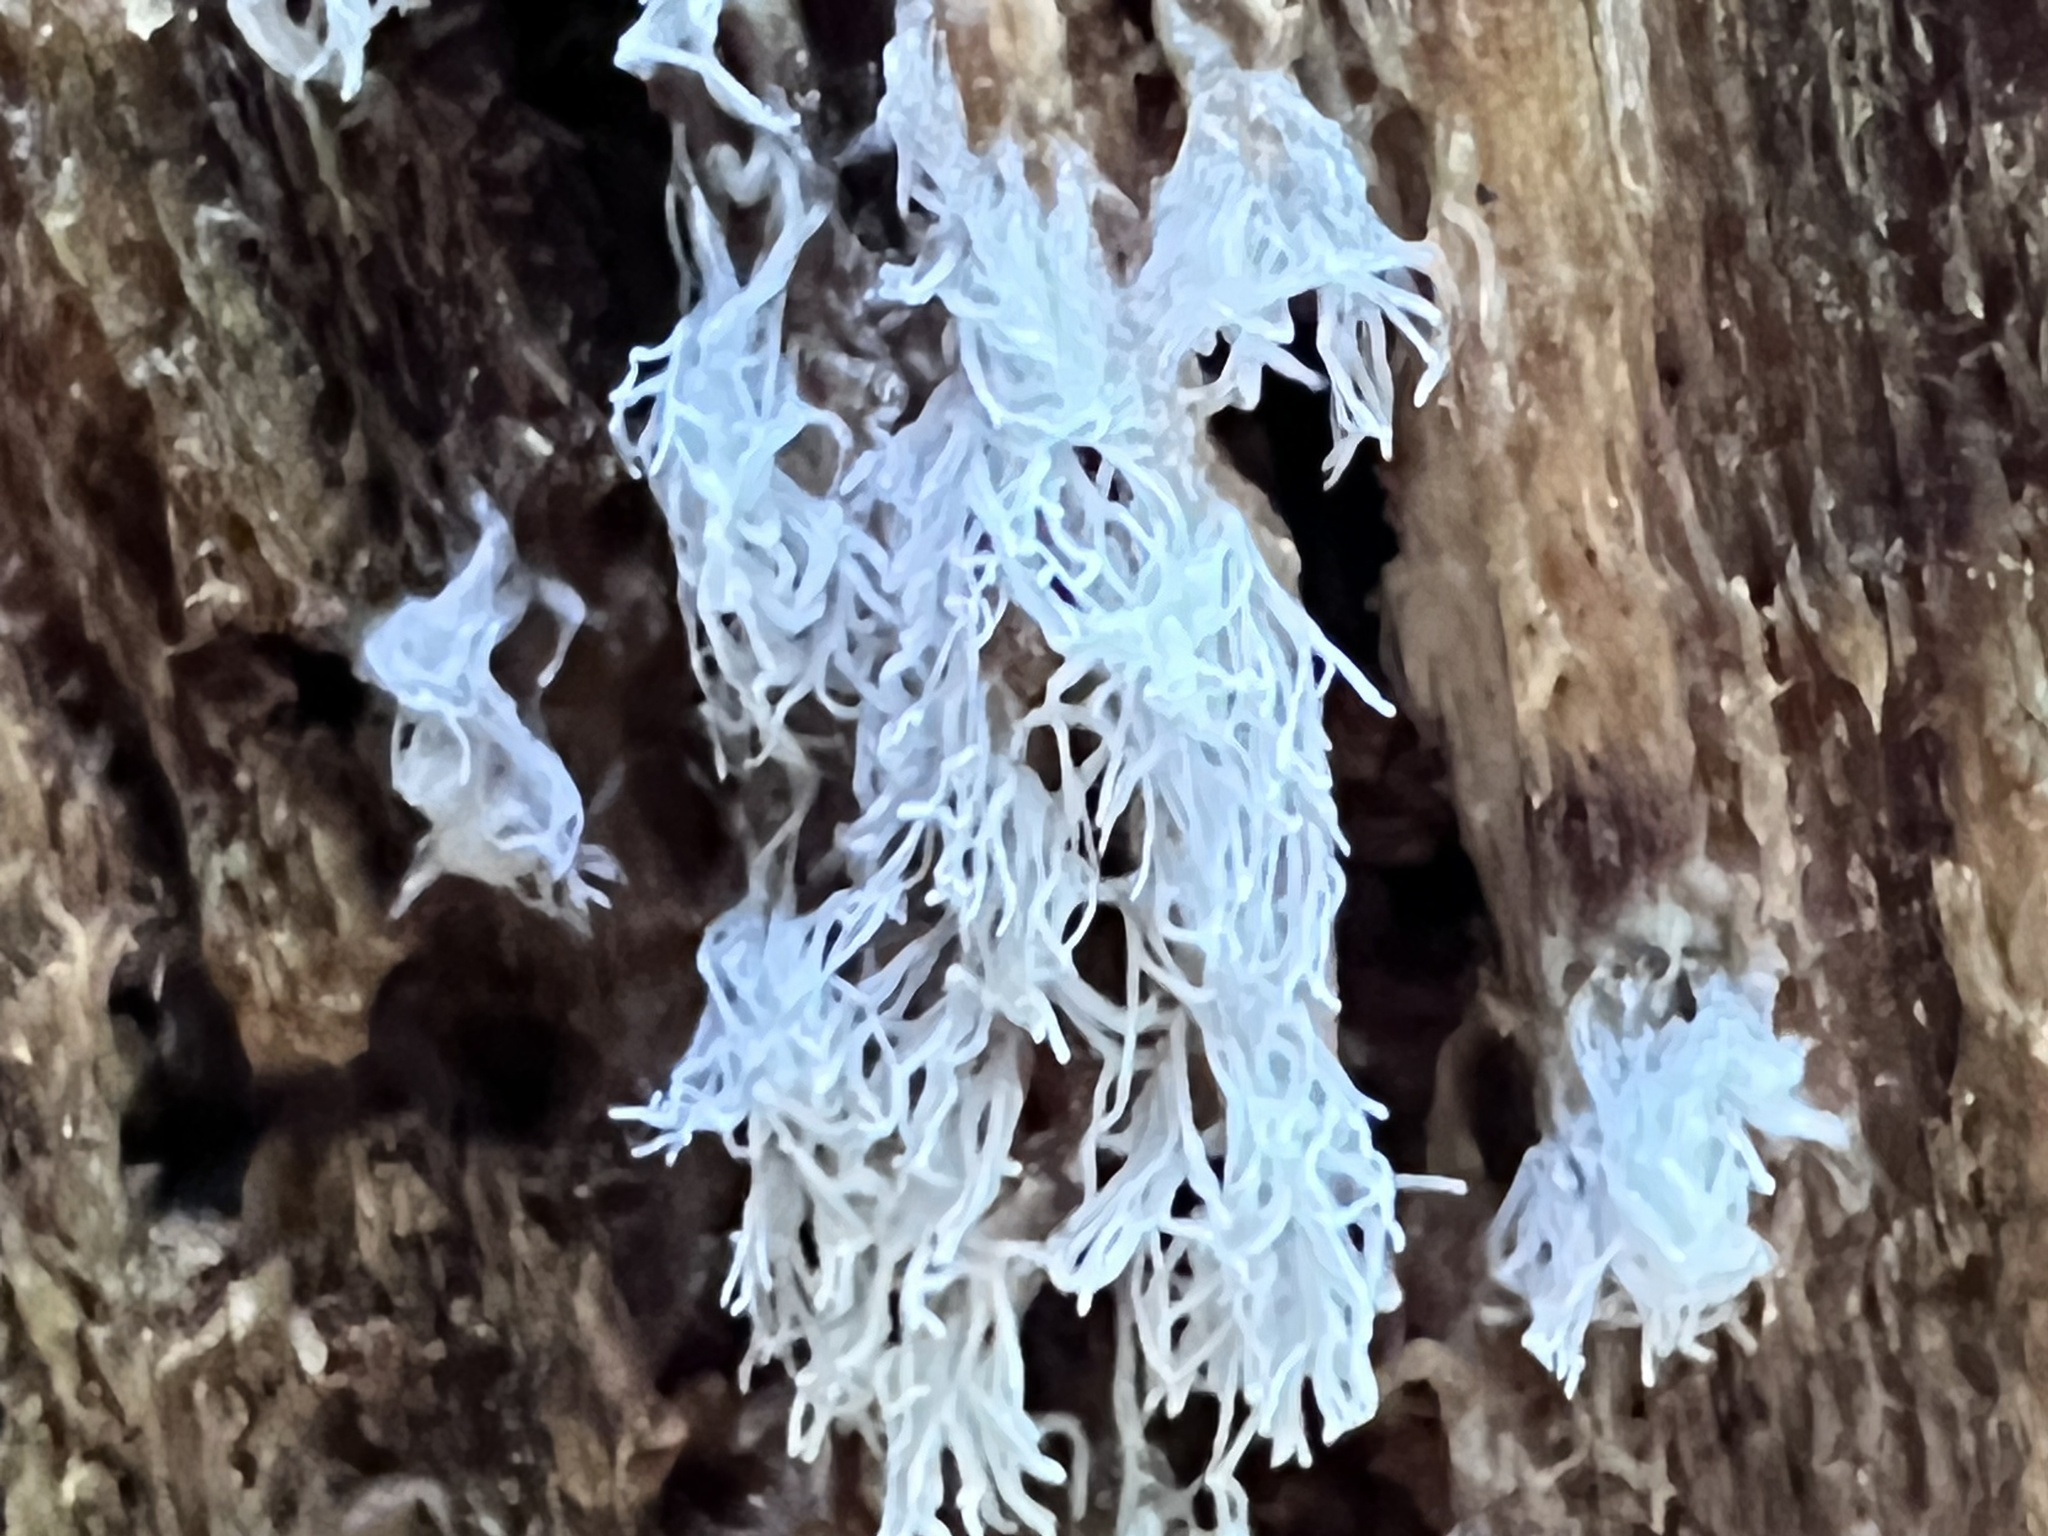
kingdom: Protozoa
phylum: Mycetozoa
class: Protosteliomycetes
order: Ceratiomyxales
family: Ceratiomyxaceae
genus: Ceratiomyxa
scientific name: Ceratiomyxa fruticulosa
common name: Honeycomb coral slime mold
